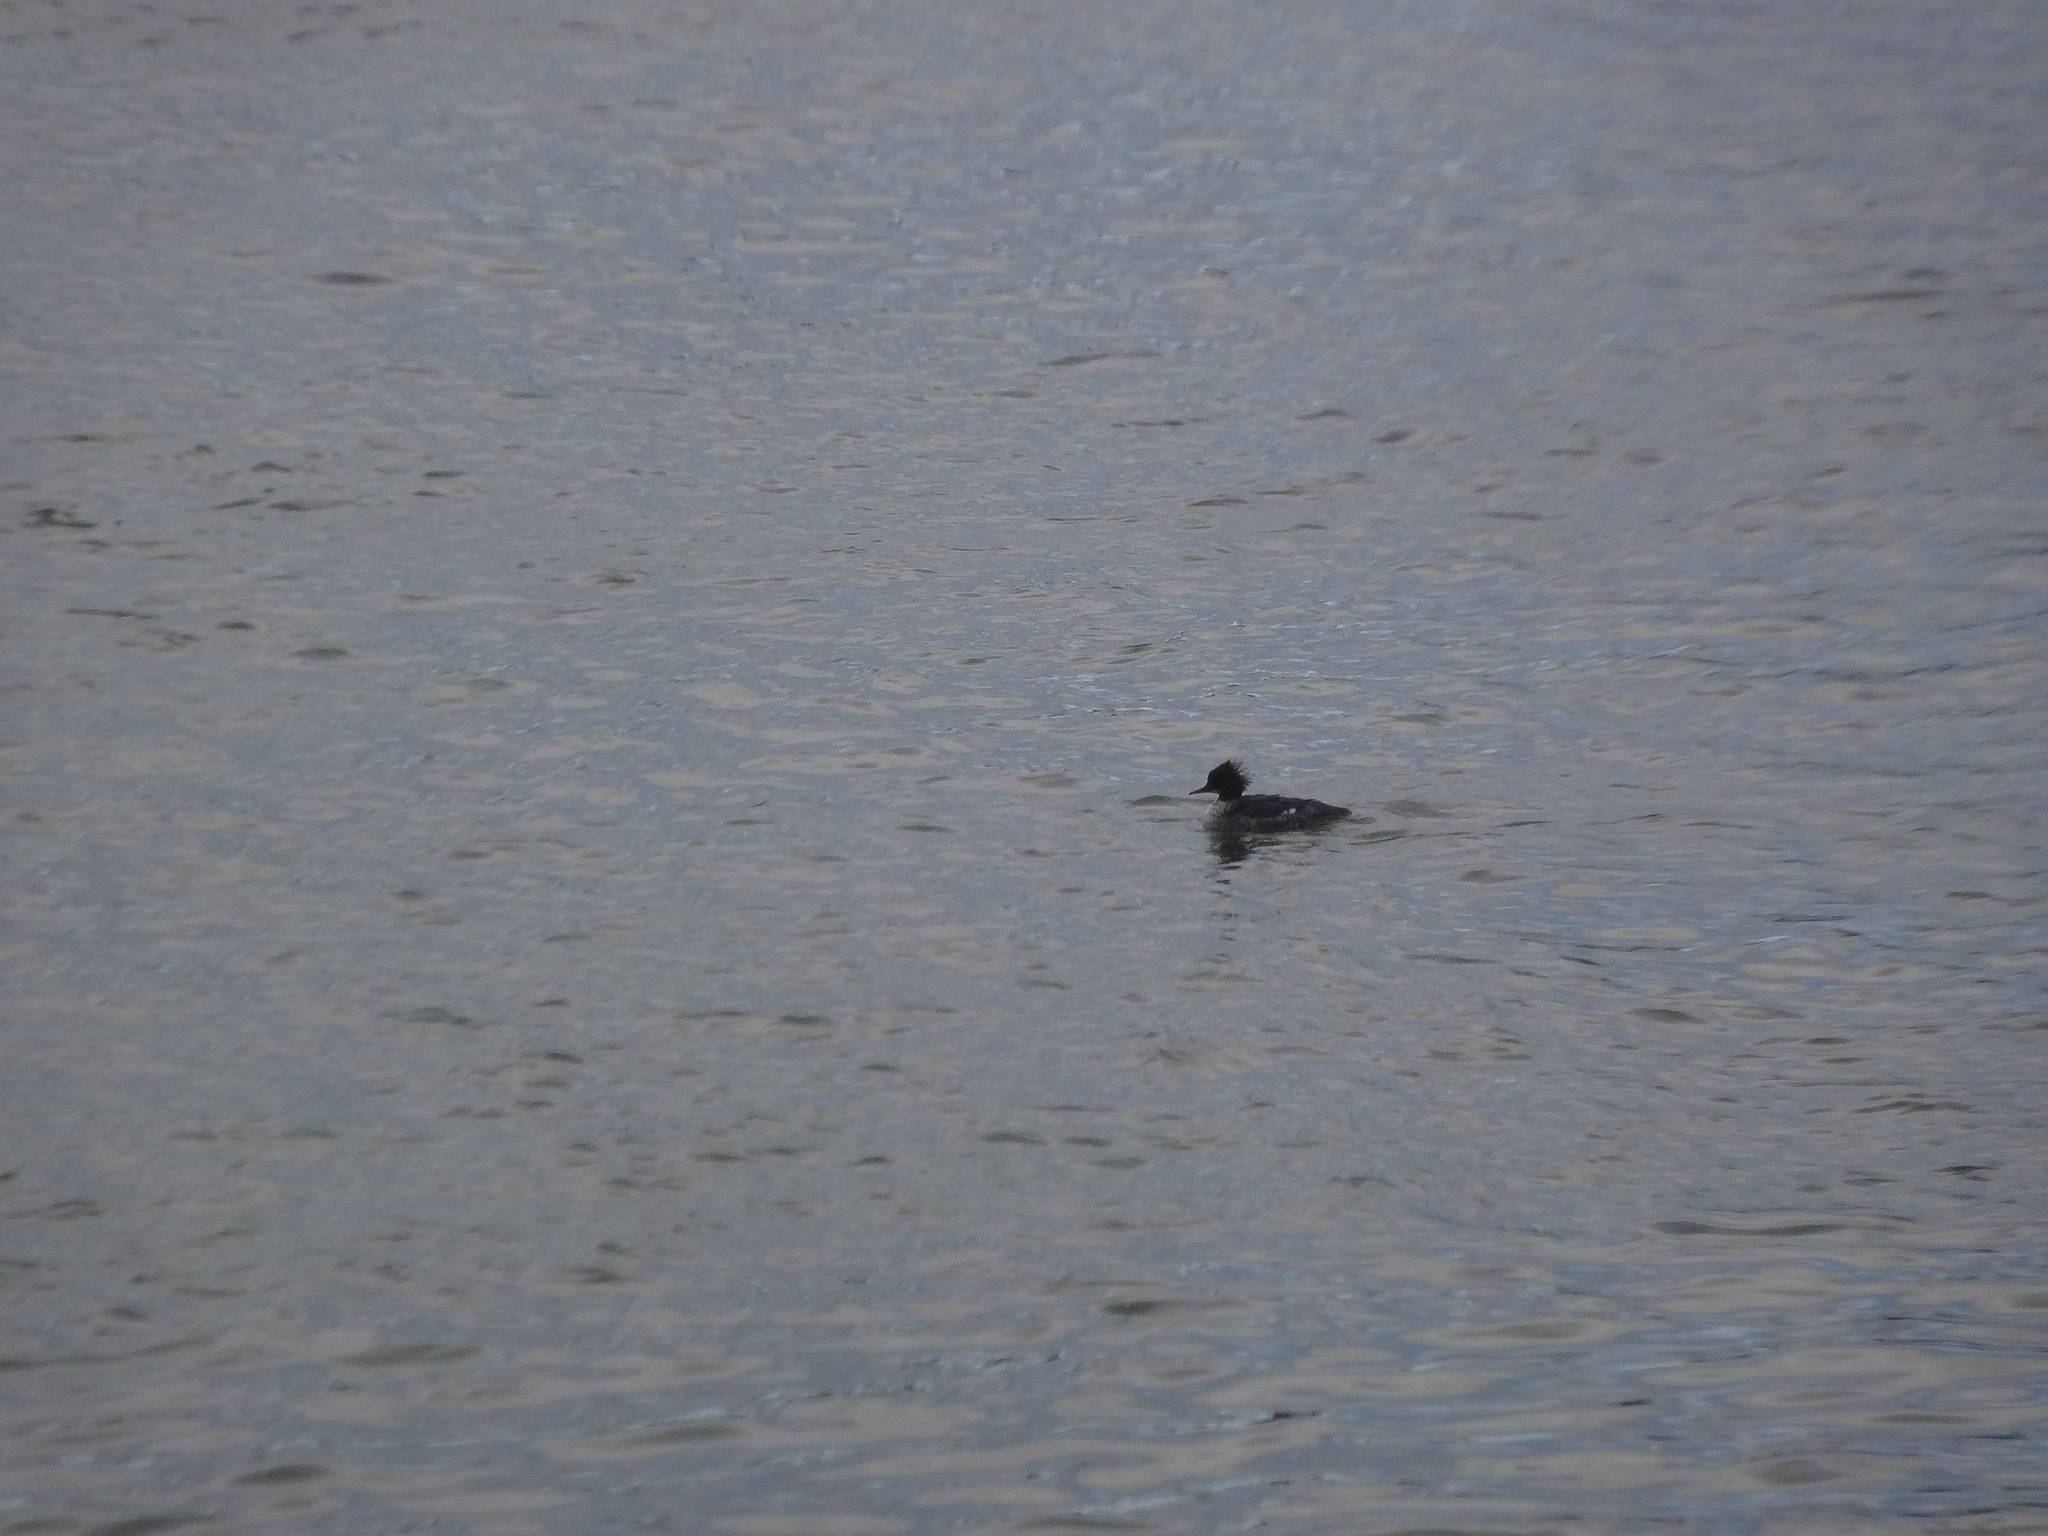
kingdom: Animalia
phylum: Chordata
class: Aves
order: Anseriformes
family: Anatidae
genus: Mergus
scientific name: Mergus merganser
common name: Common merganser
